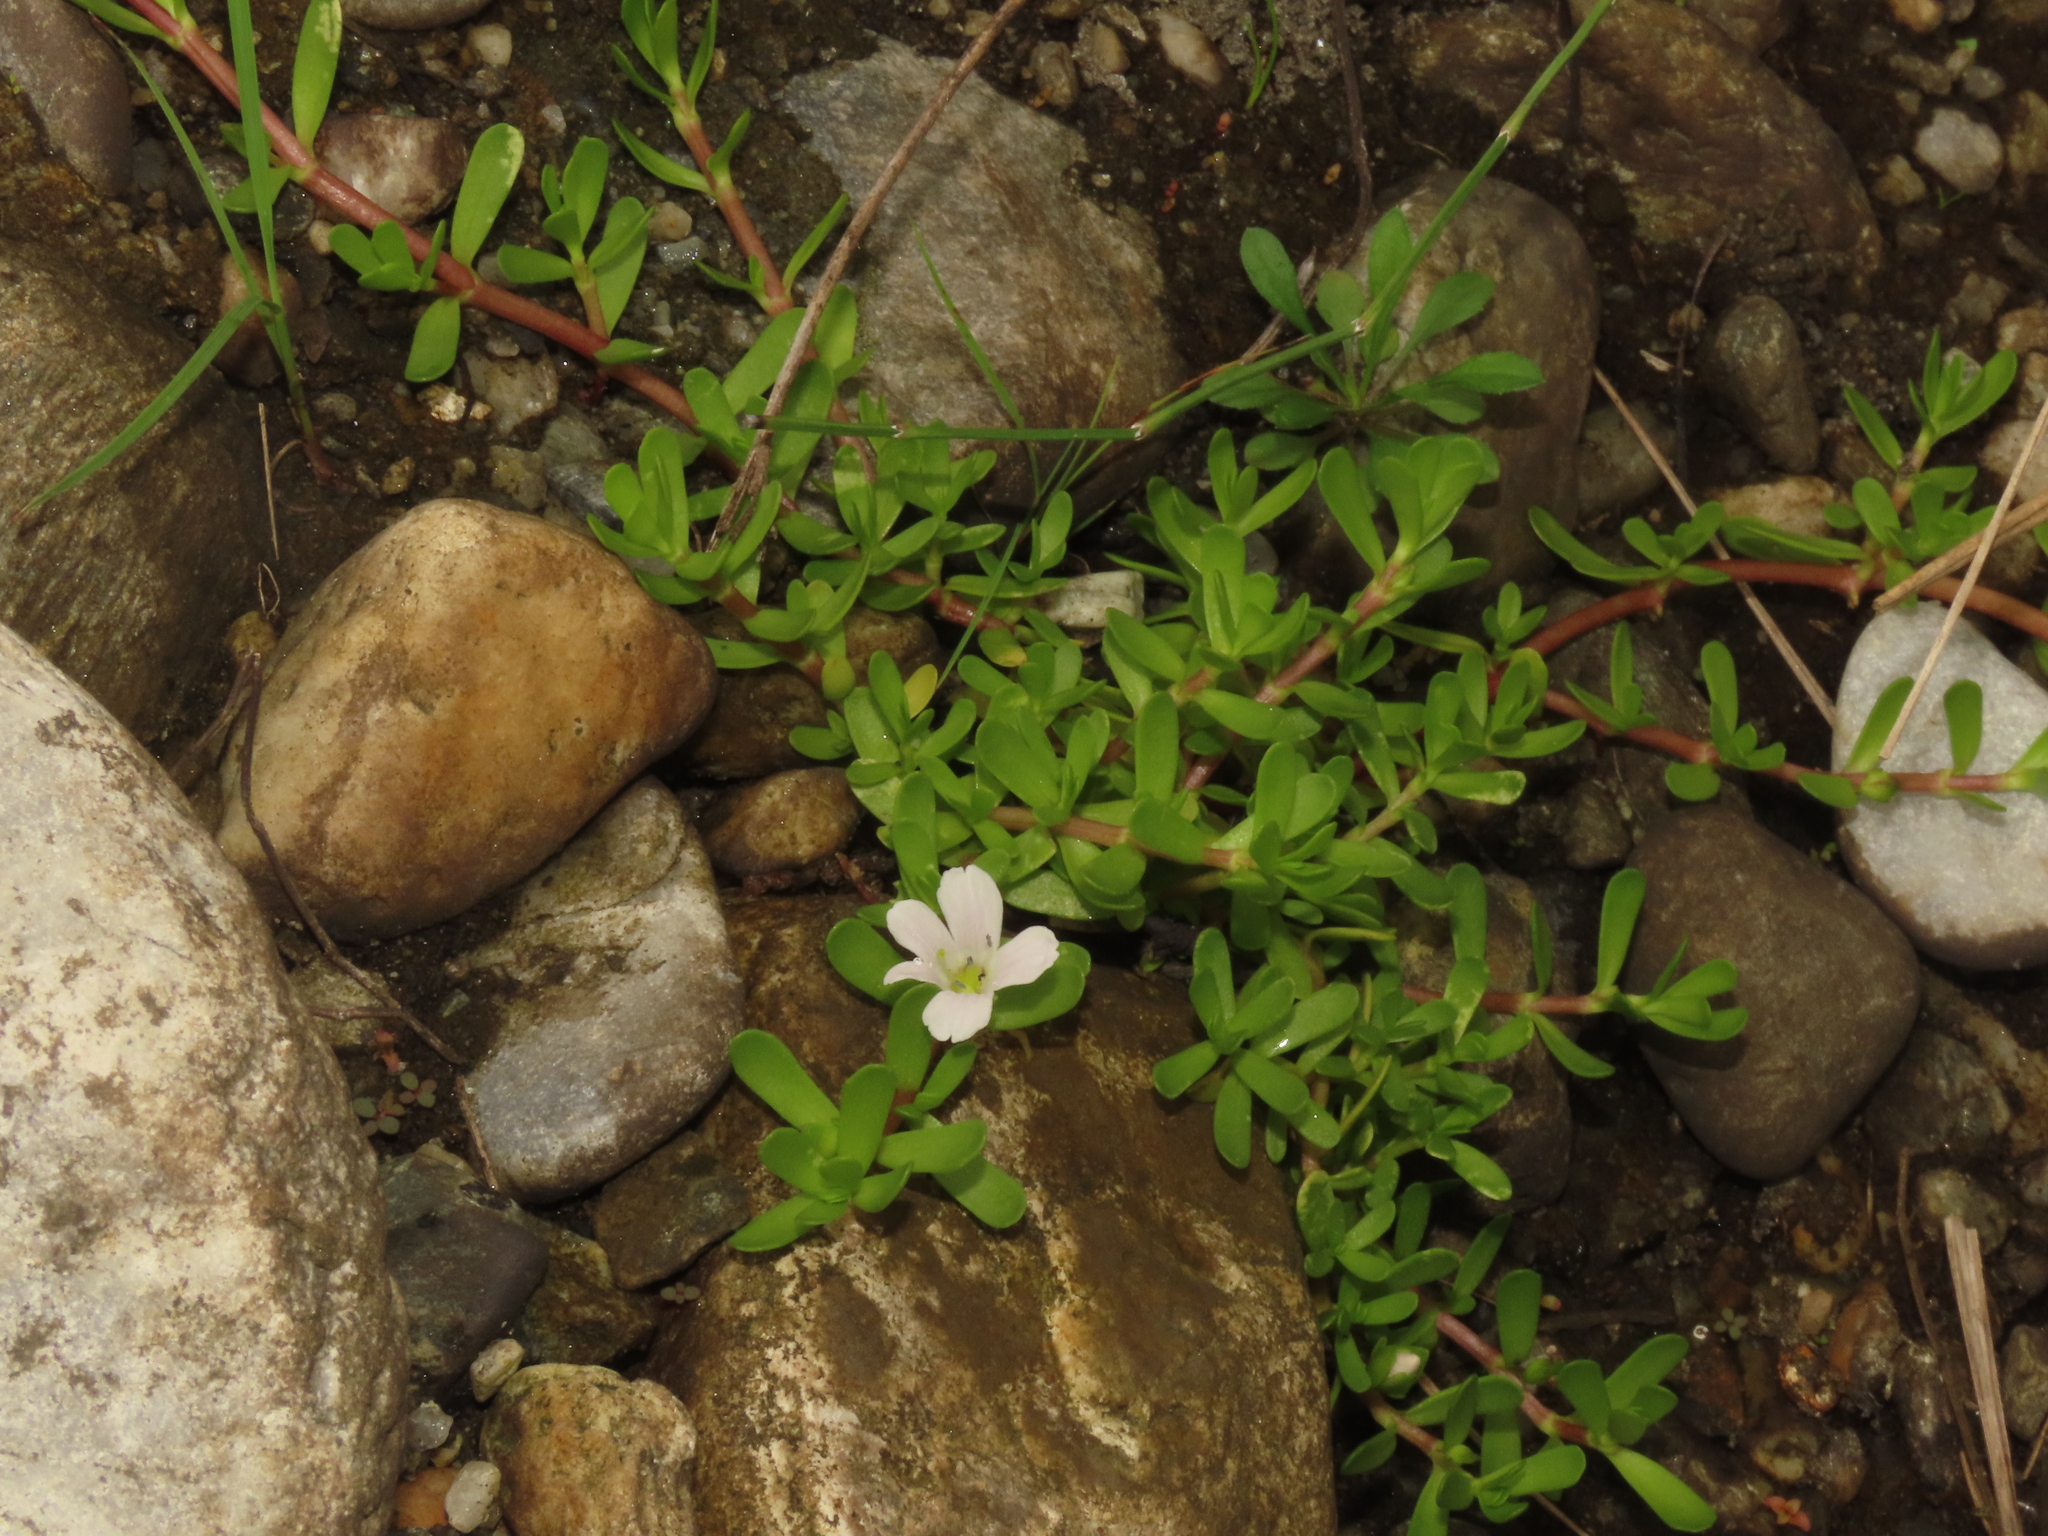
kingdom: Plantae
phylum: Tracheophyta
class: Magnoliopsida
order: Lamiales
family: Plantaginaceae
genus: Bacopa
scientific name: Bacopa monnieri
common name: Indian-pennywort
